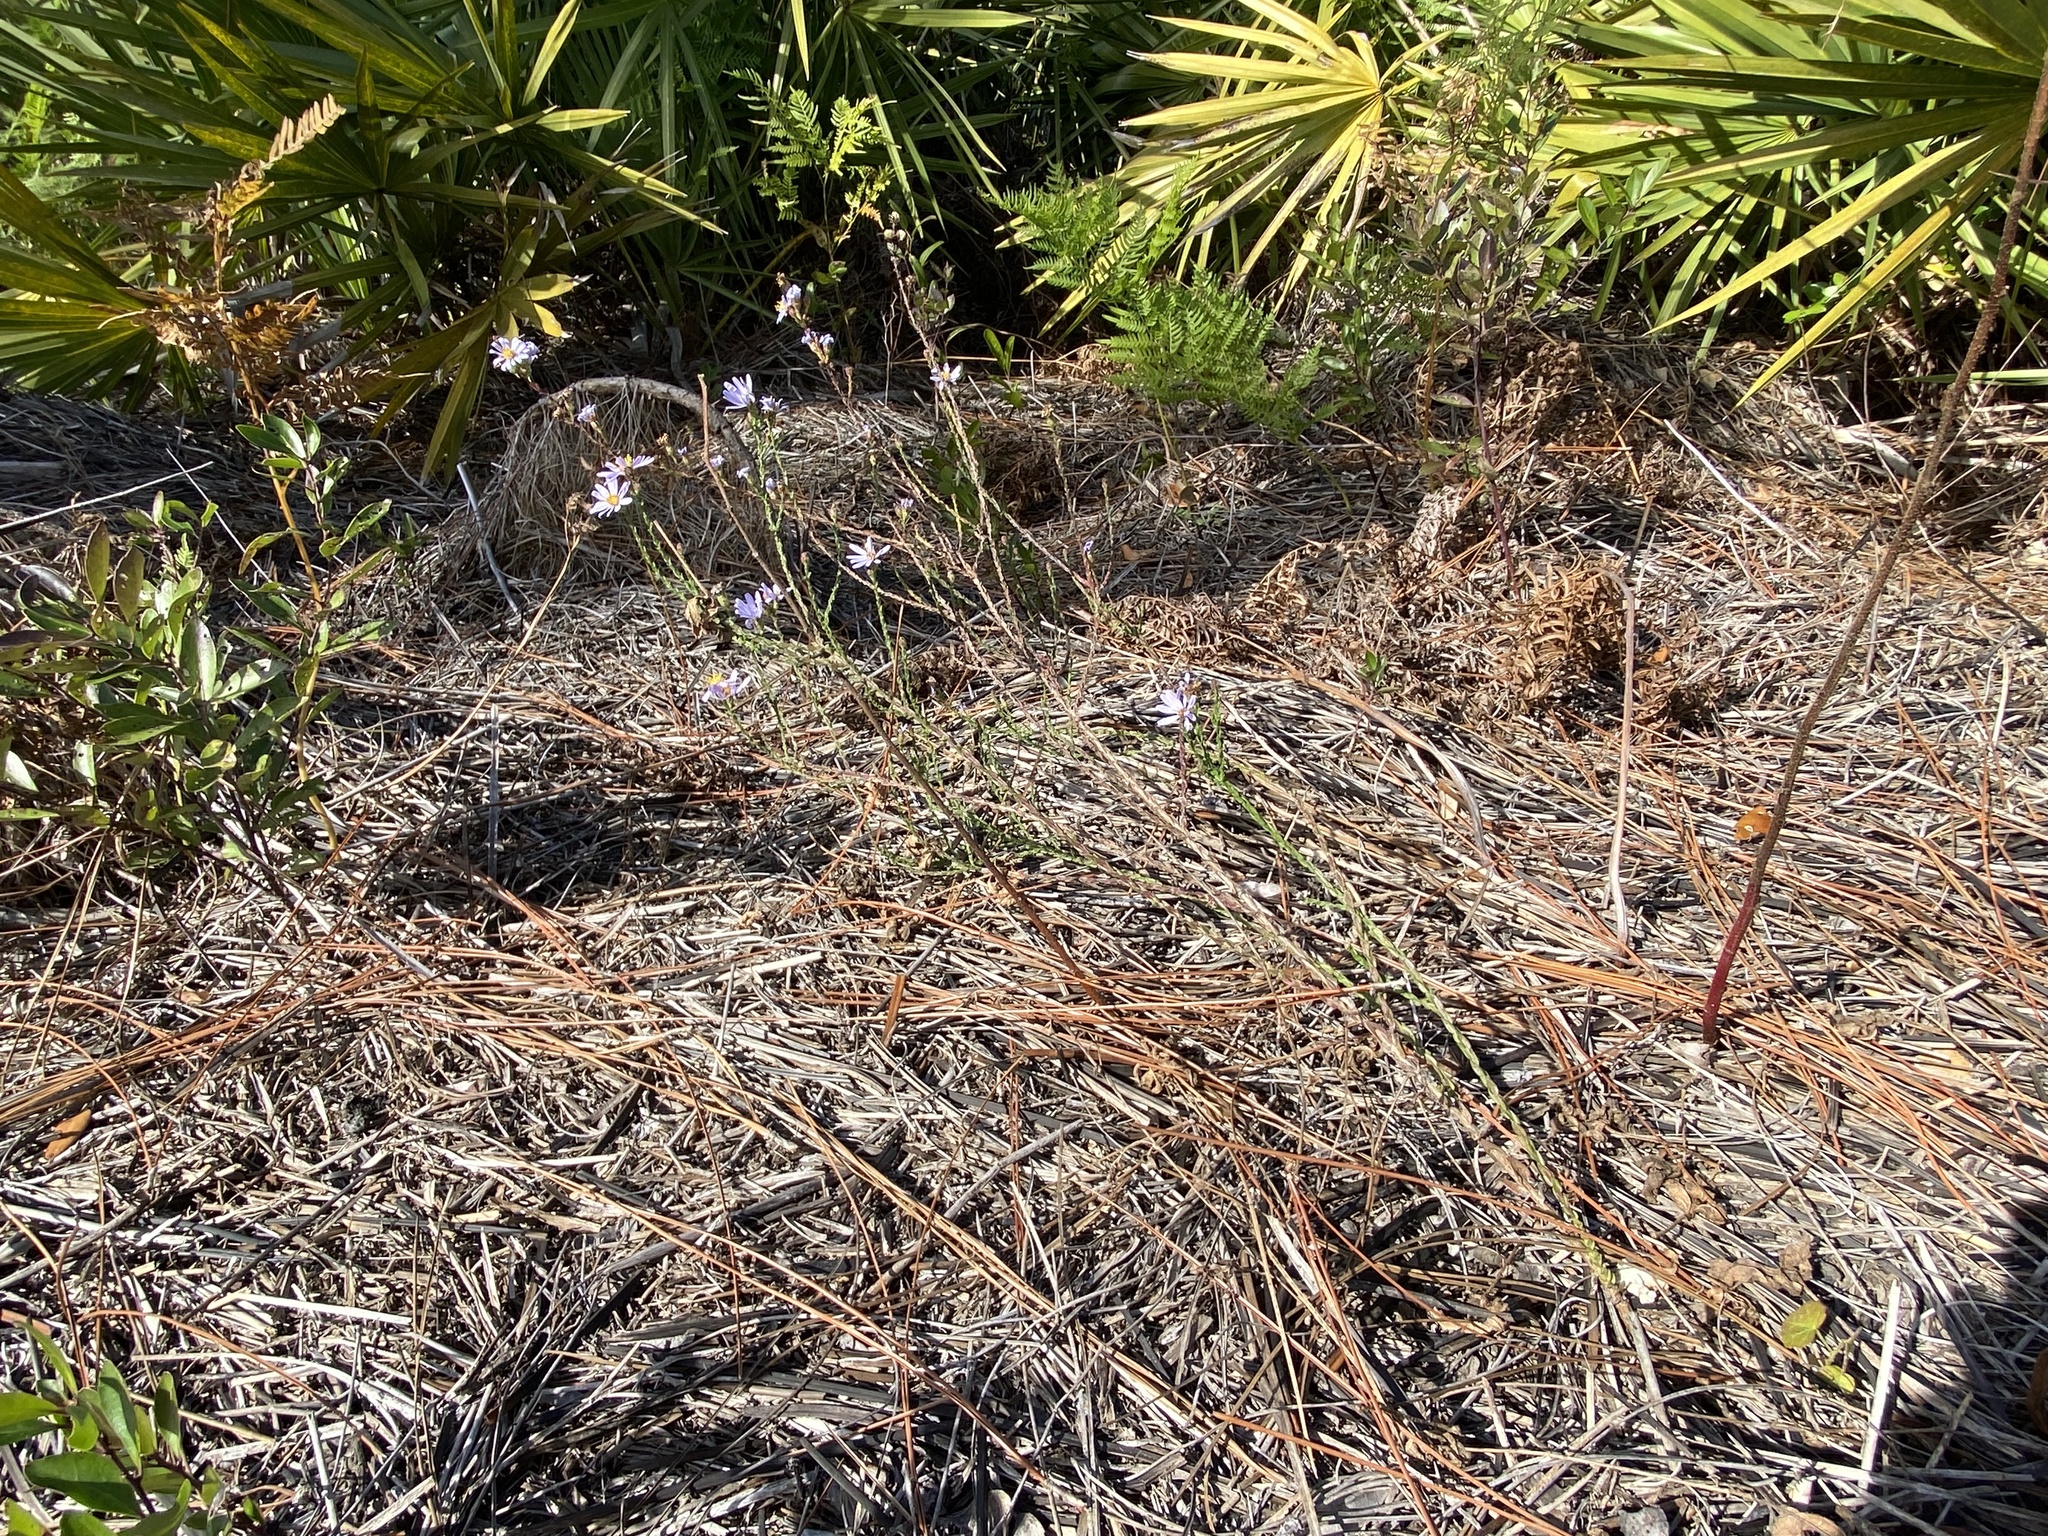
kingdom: Plantae
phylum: Tracheophyta
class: Magnoliopsida
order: Asterales
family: Asteraceae
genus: Symphyotrichum
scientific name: Symphyotrichum adnatum
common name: Scale-leaf aster
